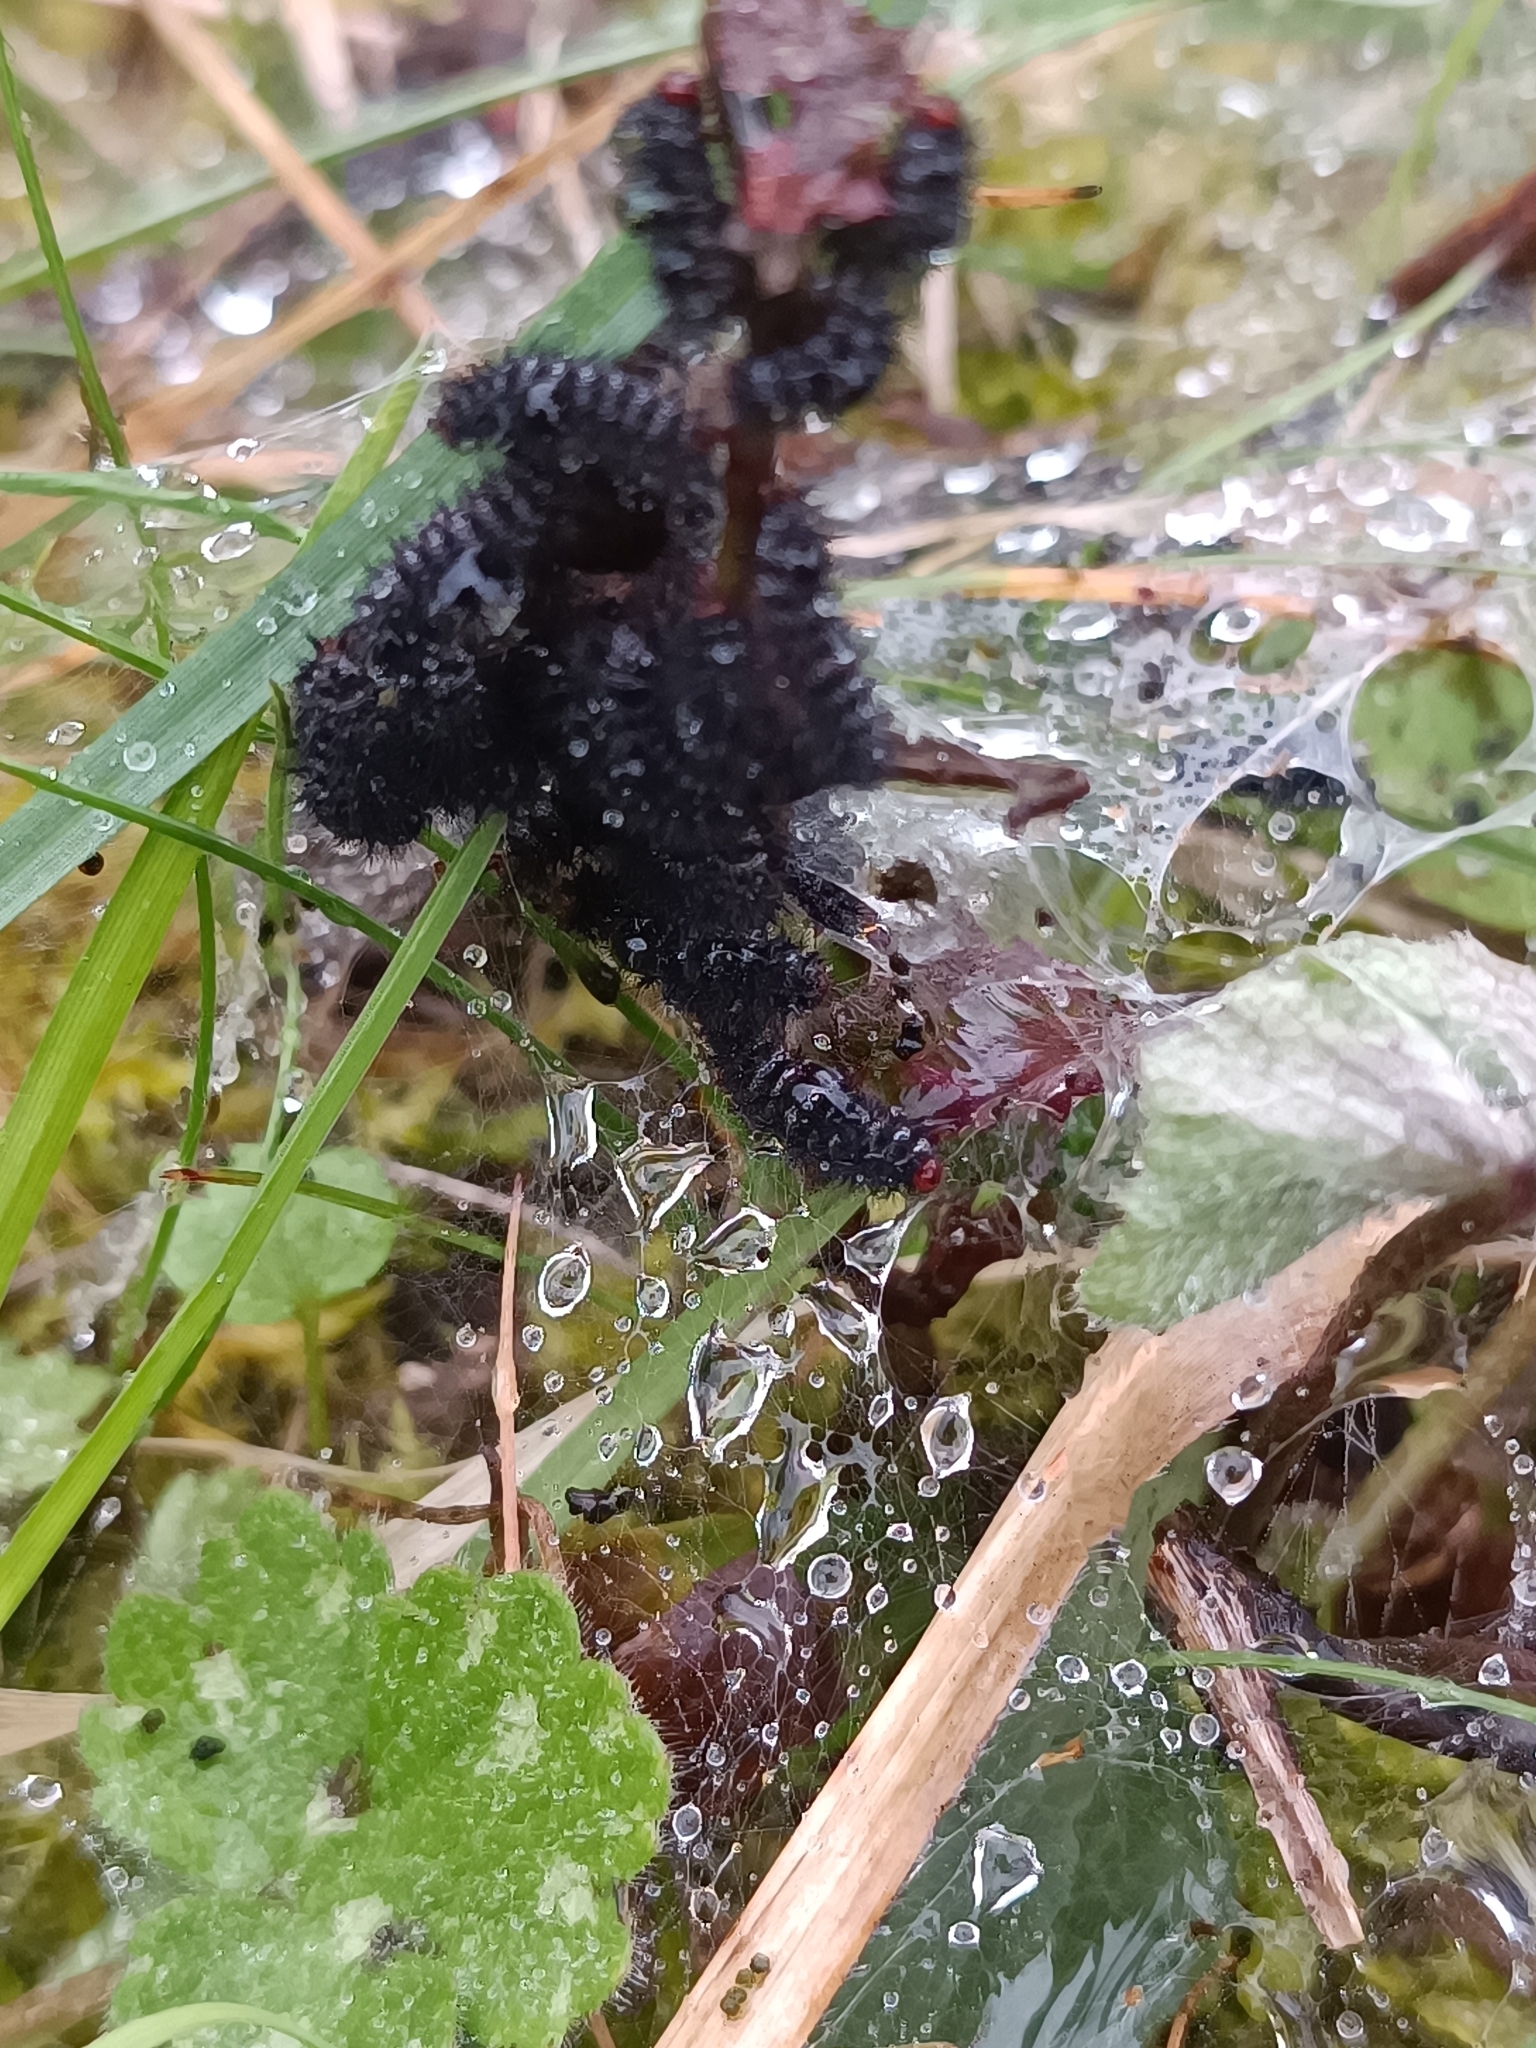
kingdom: Animalia
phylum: Arthropoda
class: Insecta
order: Lepidoptera
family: Nymphalidae
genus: Melitaea
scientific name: Melitaea cinxia
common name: Glanville fritillary
